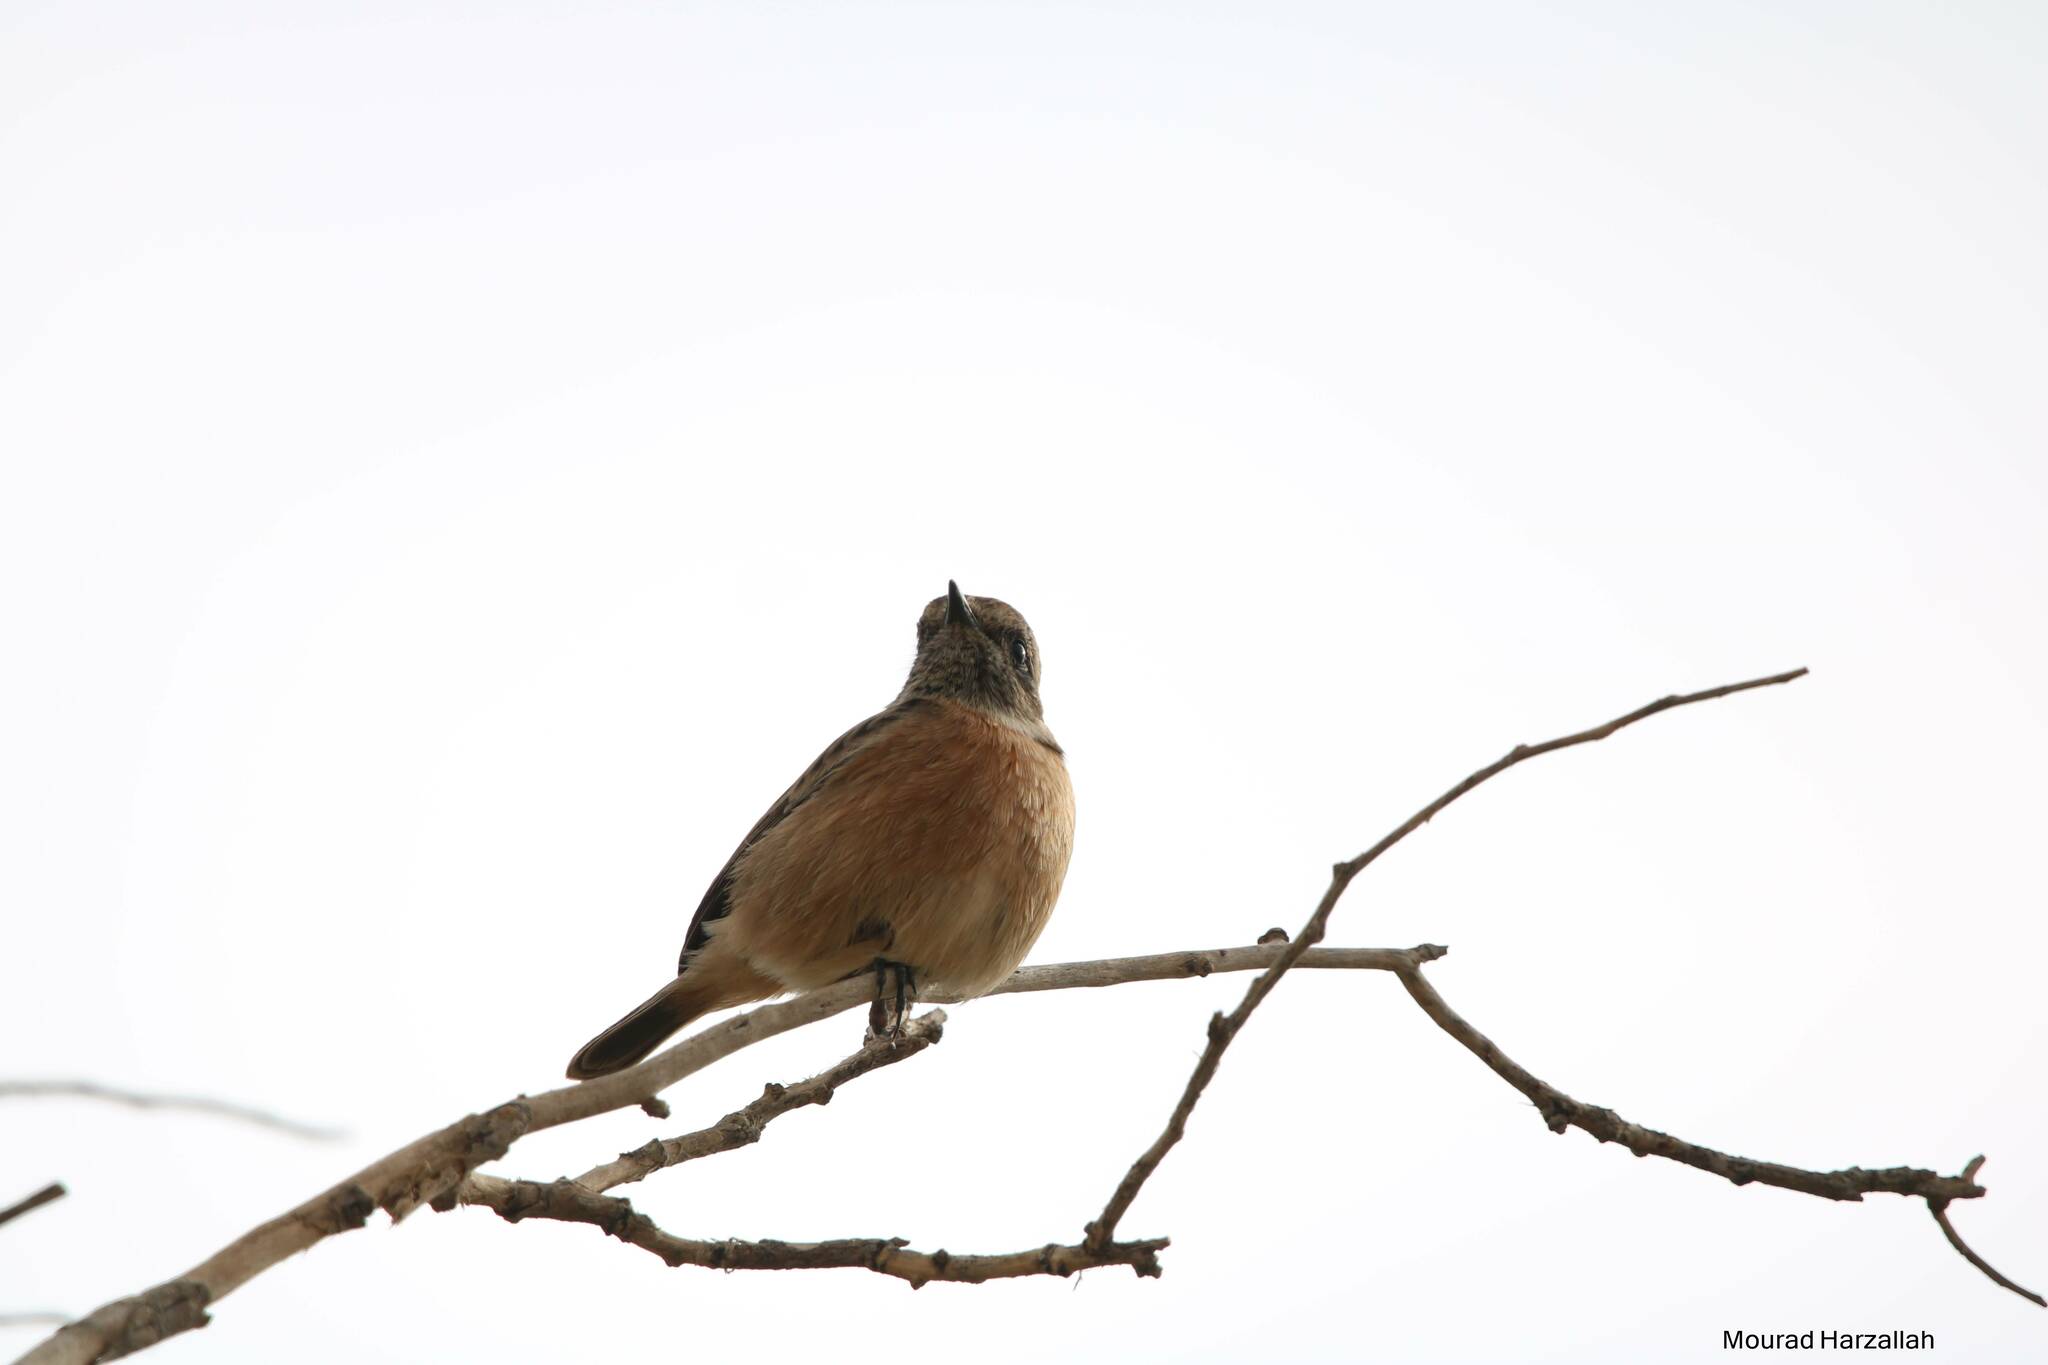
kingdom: Animalia
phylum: Chordata
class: Aves
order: Passeriformes
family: Muscicapidae
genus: Saxicola
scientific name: Saxicola rubicola
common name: European stonechat
